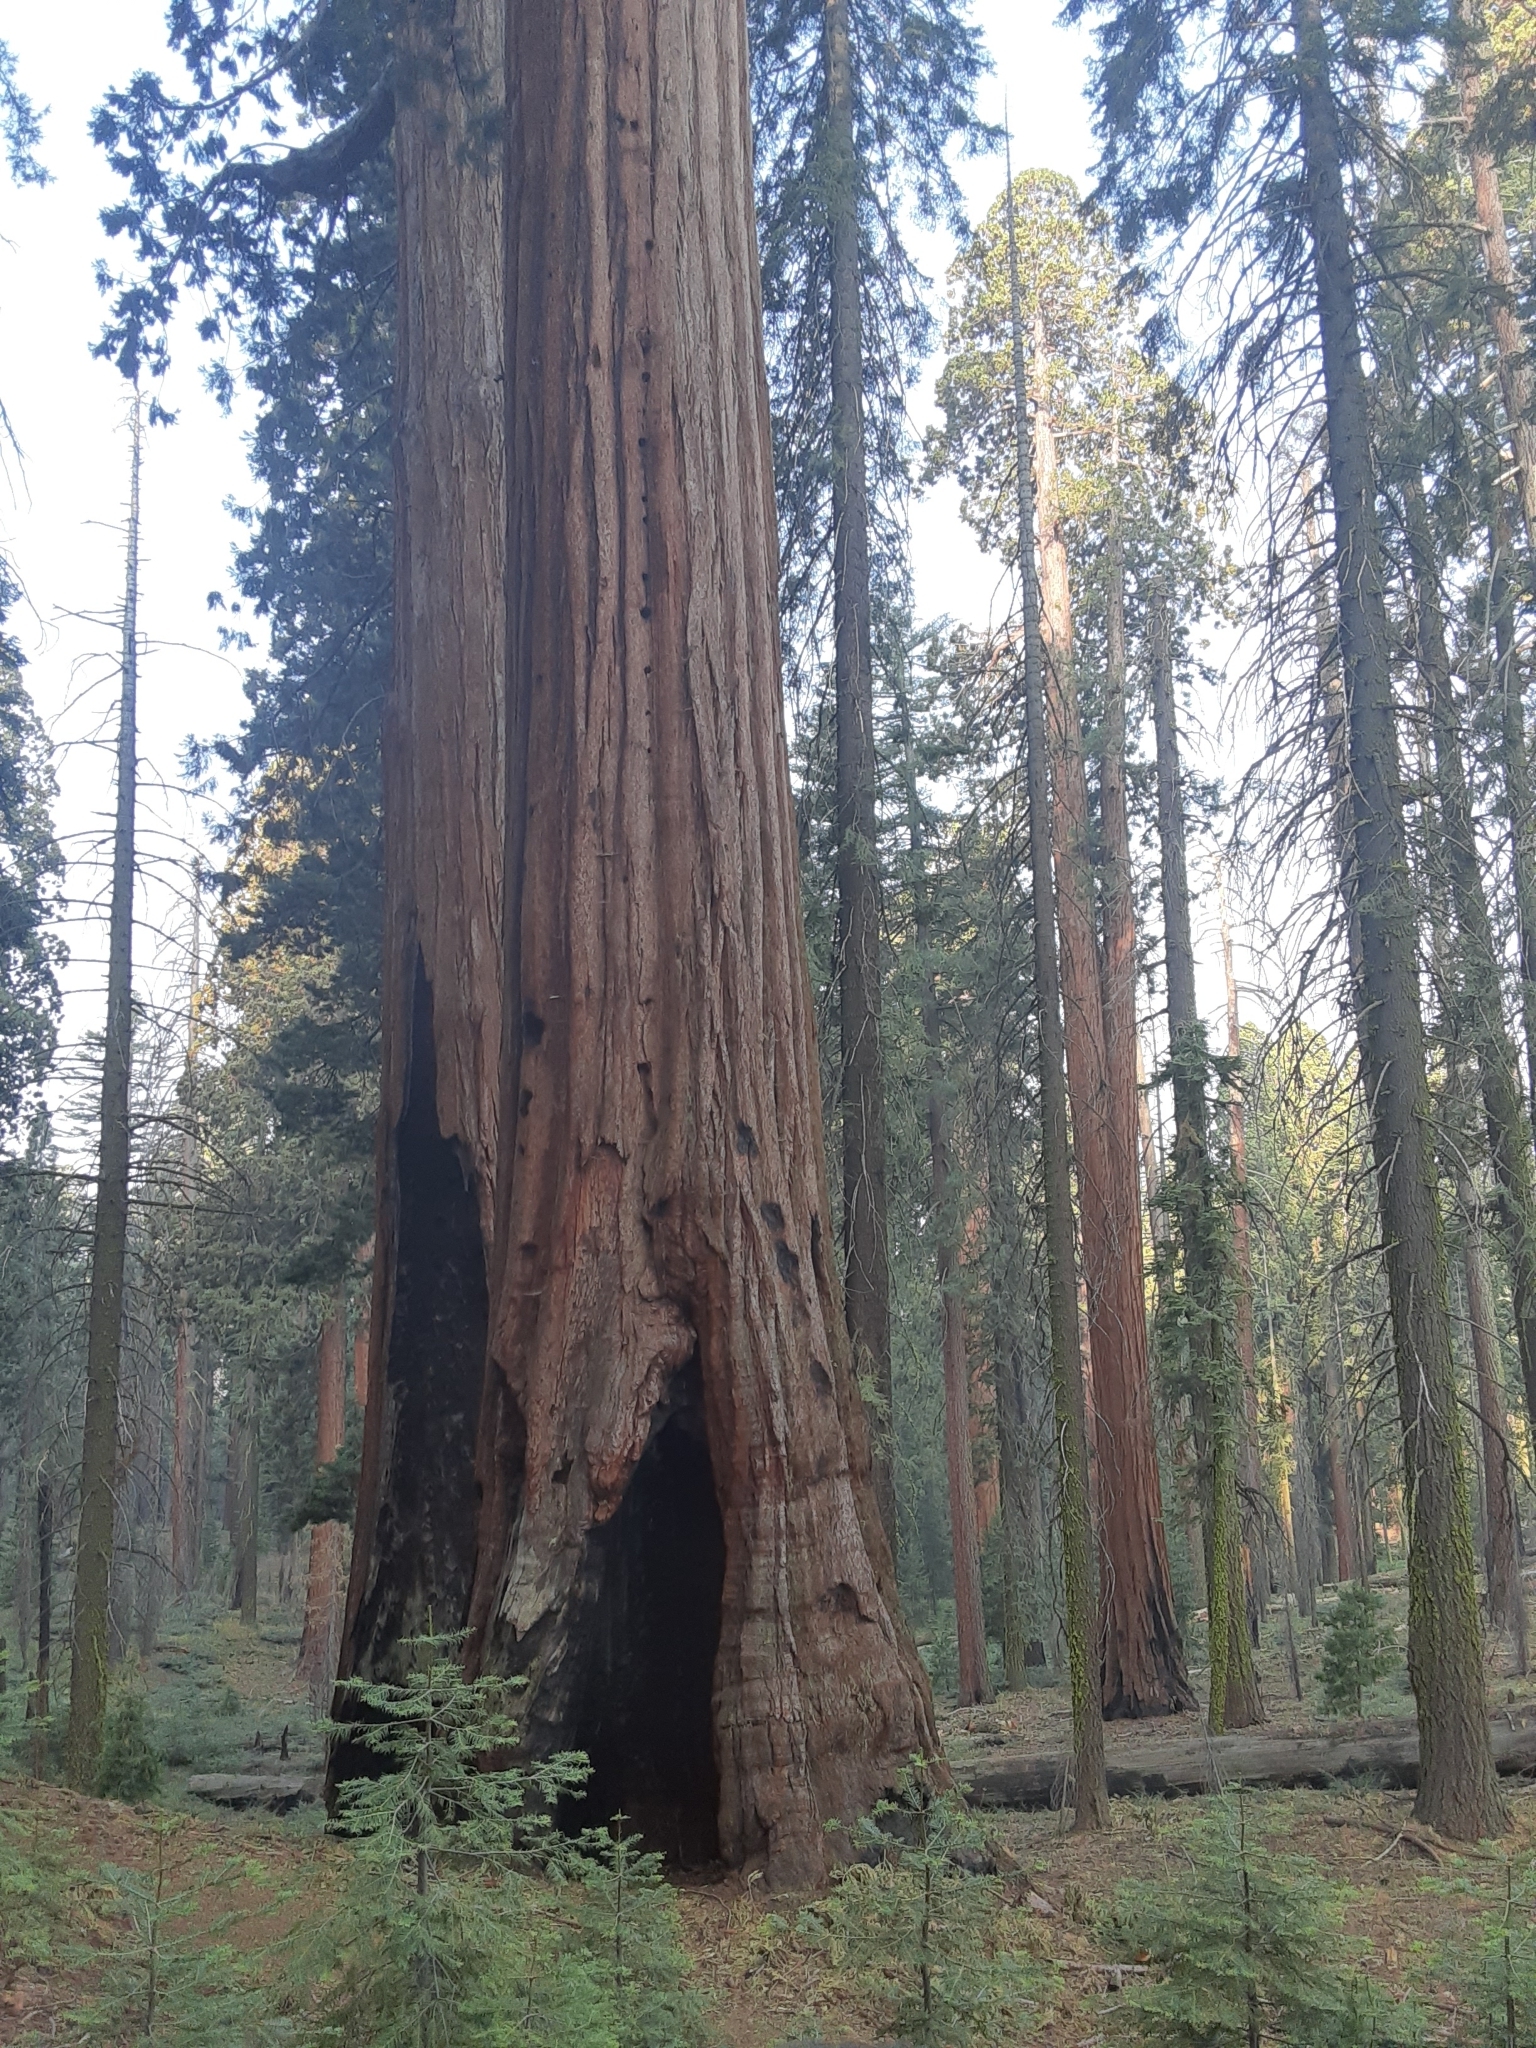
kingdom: Plantae
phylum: Tracheophyta
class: Pinopsida
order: Pinales
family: Cupressaceae
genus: Sequoiadendron
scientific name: Sequoiadendron giganteum
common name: Wellingtonia
